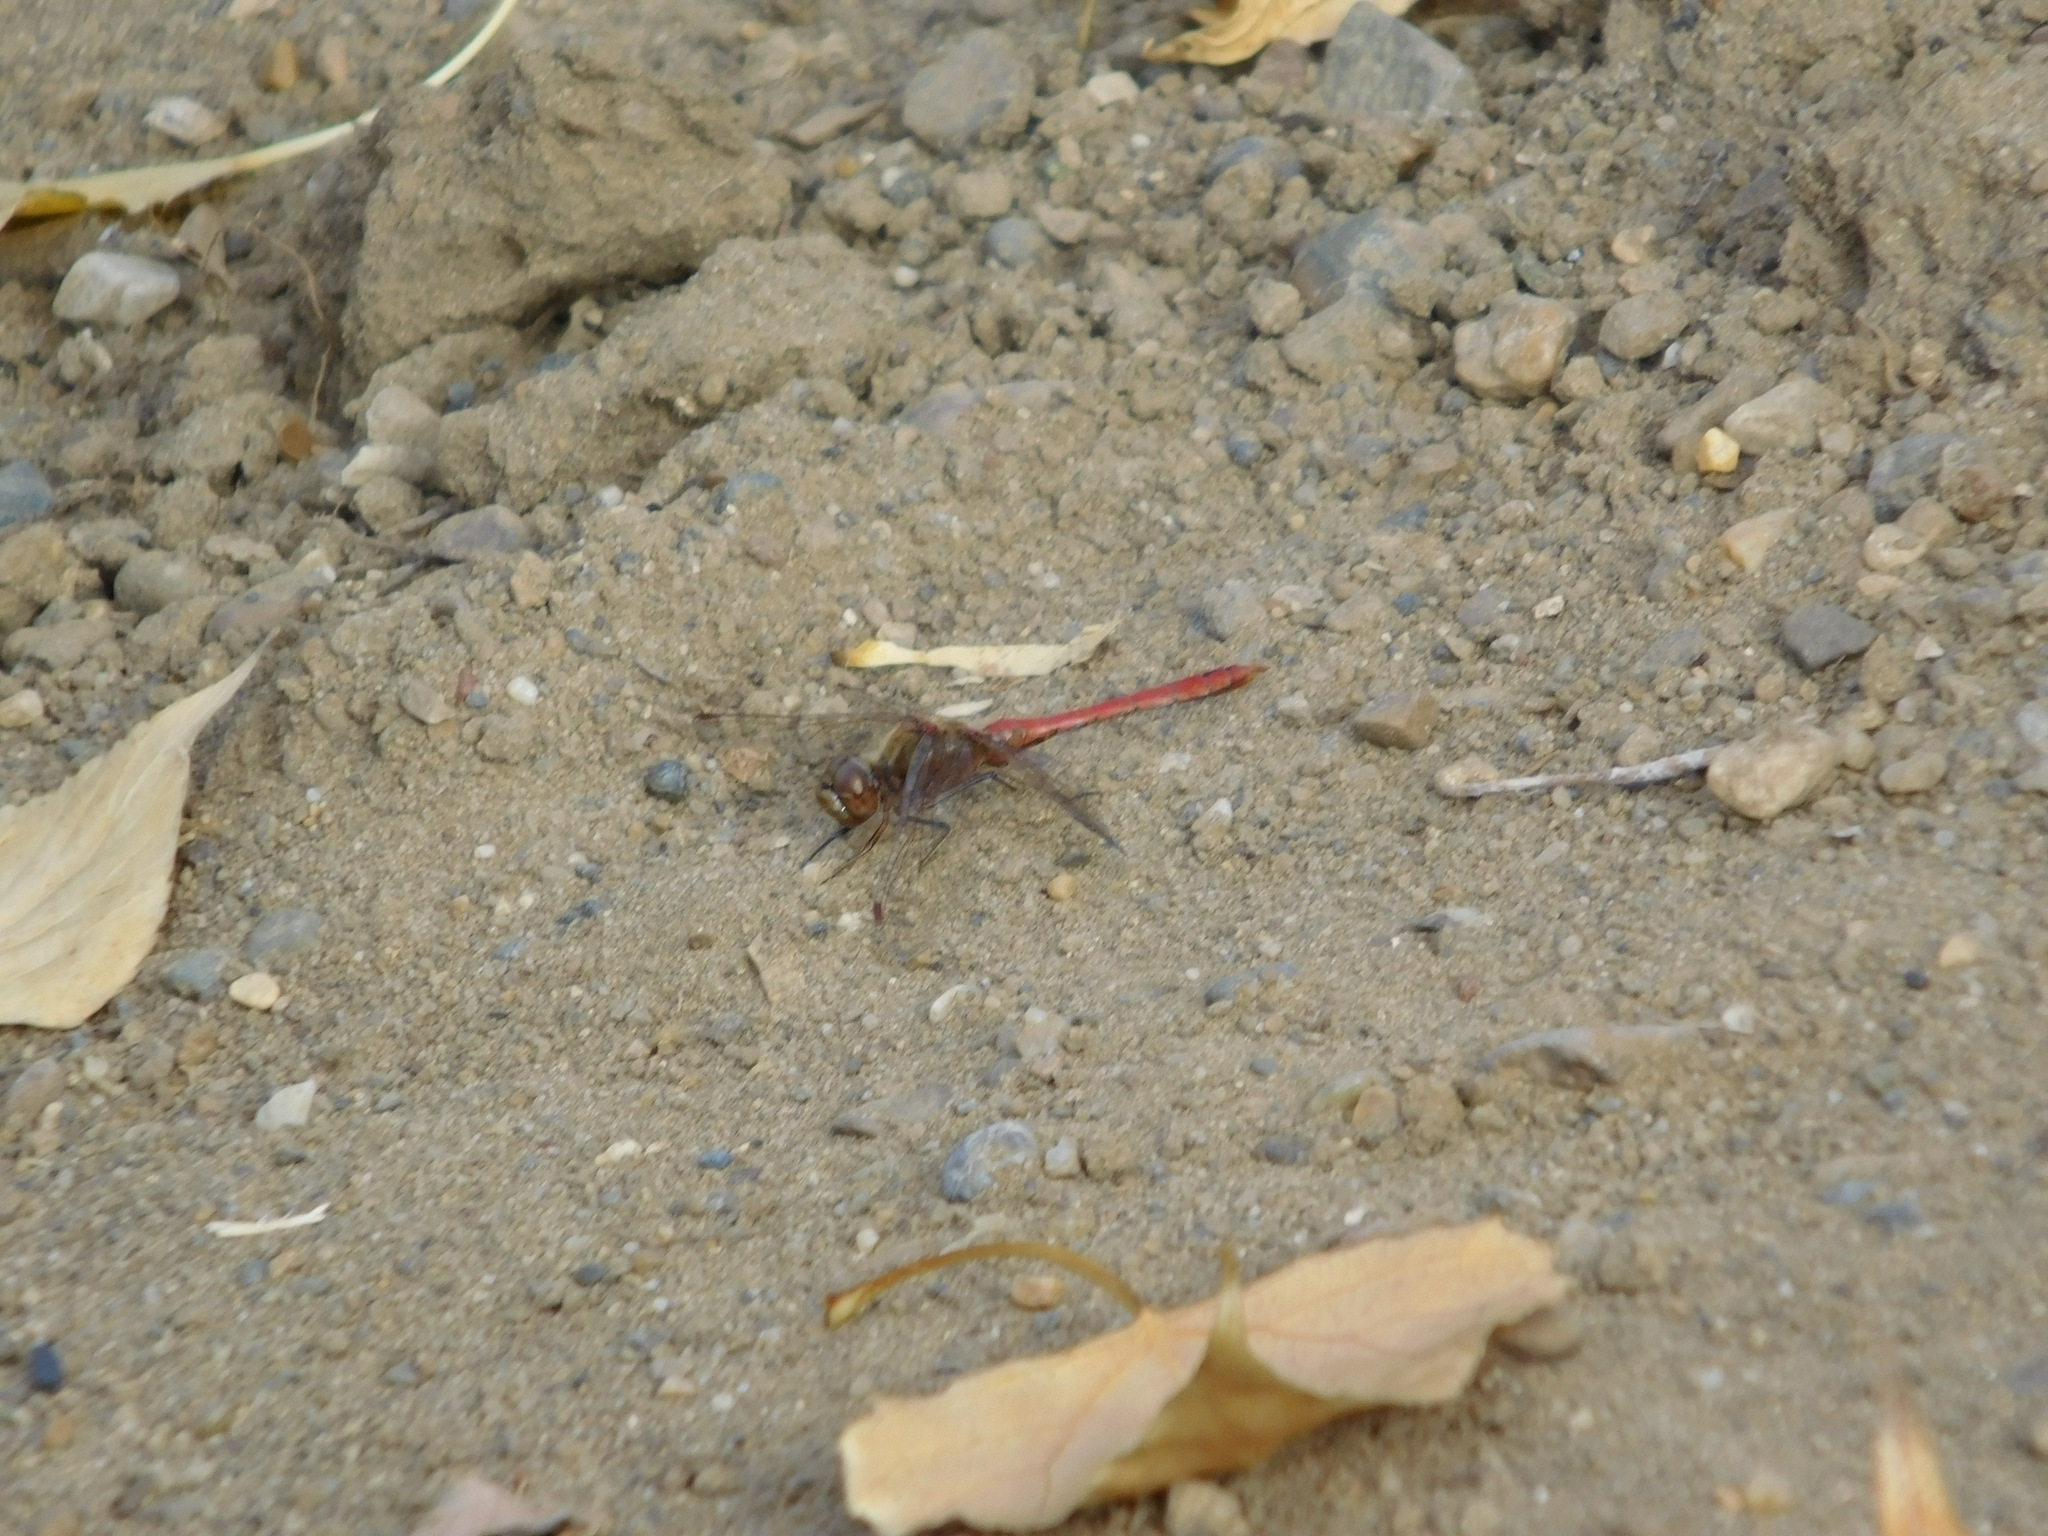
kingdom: Animalia
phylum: Arthropoda
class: Insecta
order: Odonata
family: Libellulidae
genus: Sympetrum
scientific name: Sympetrum vulgatum
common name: Vagrant darter
